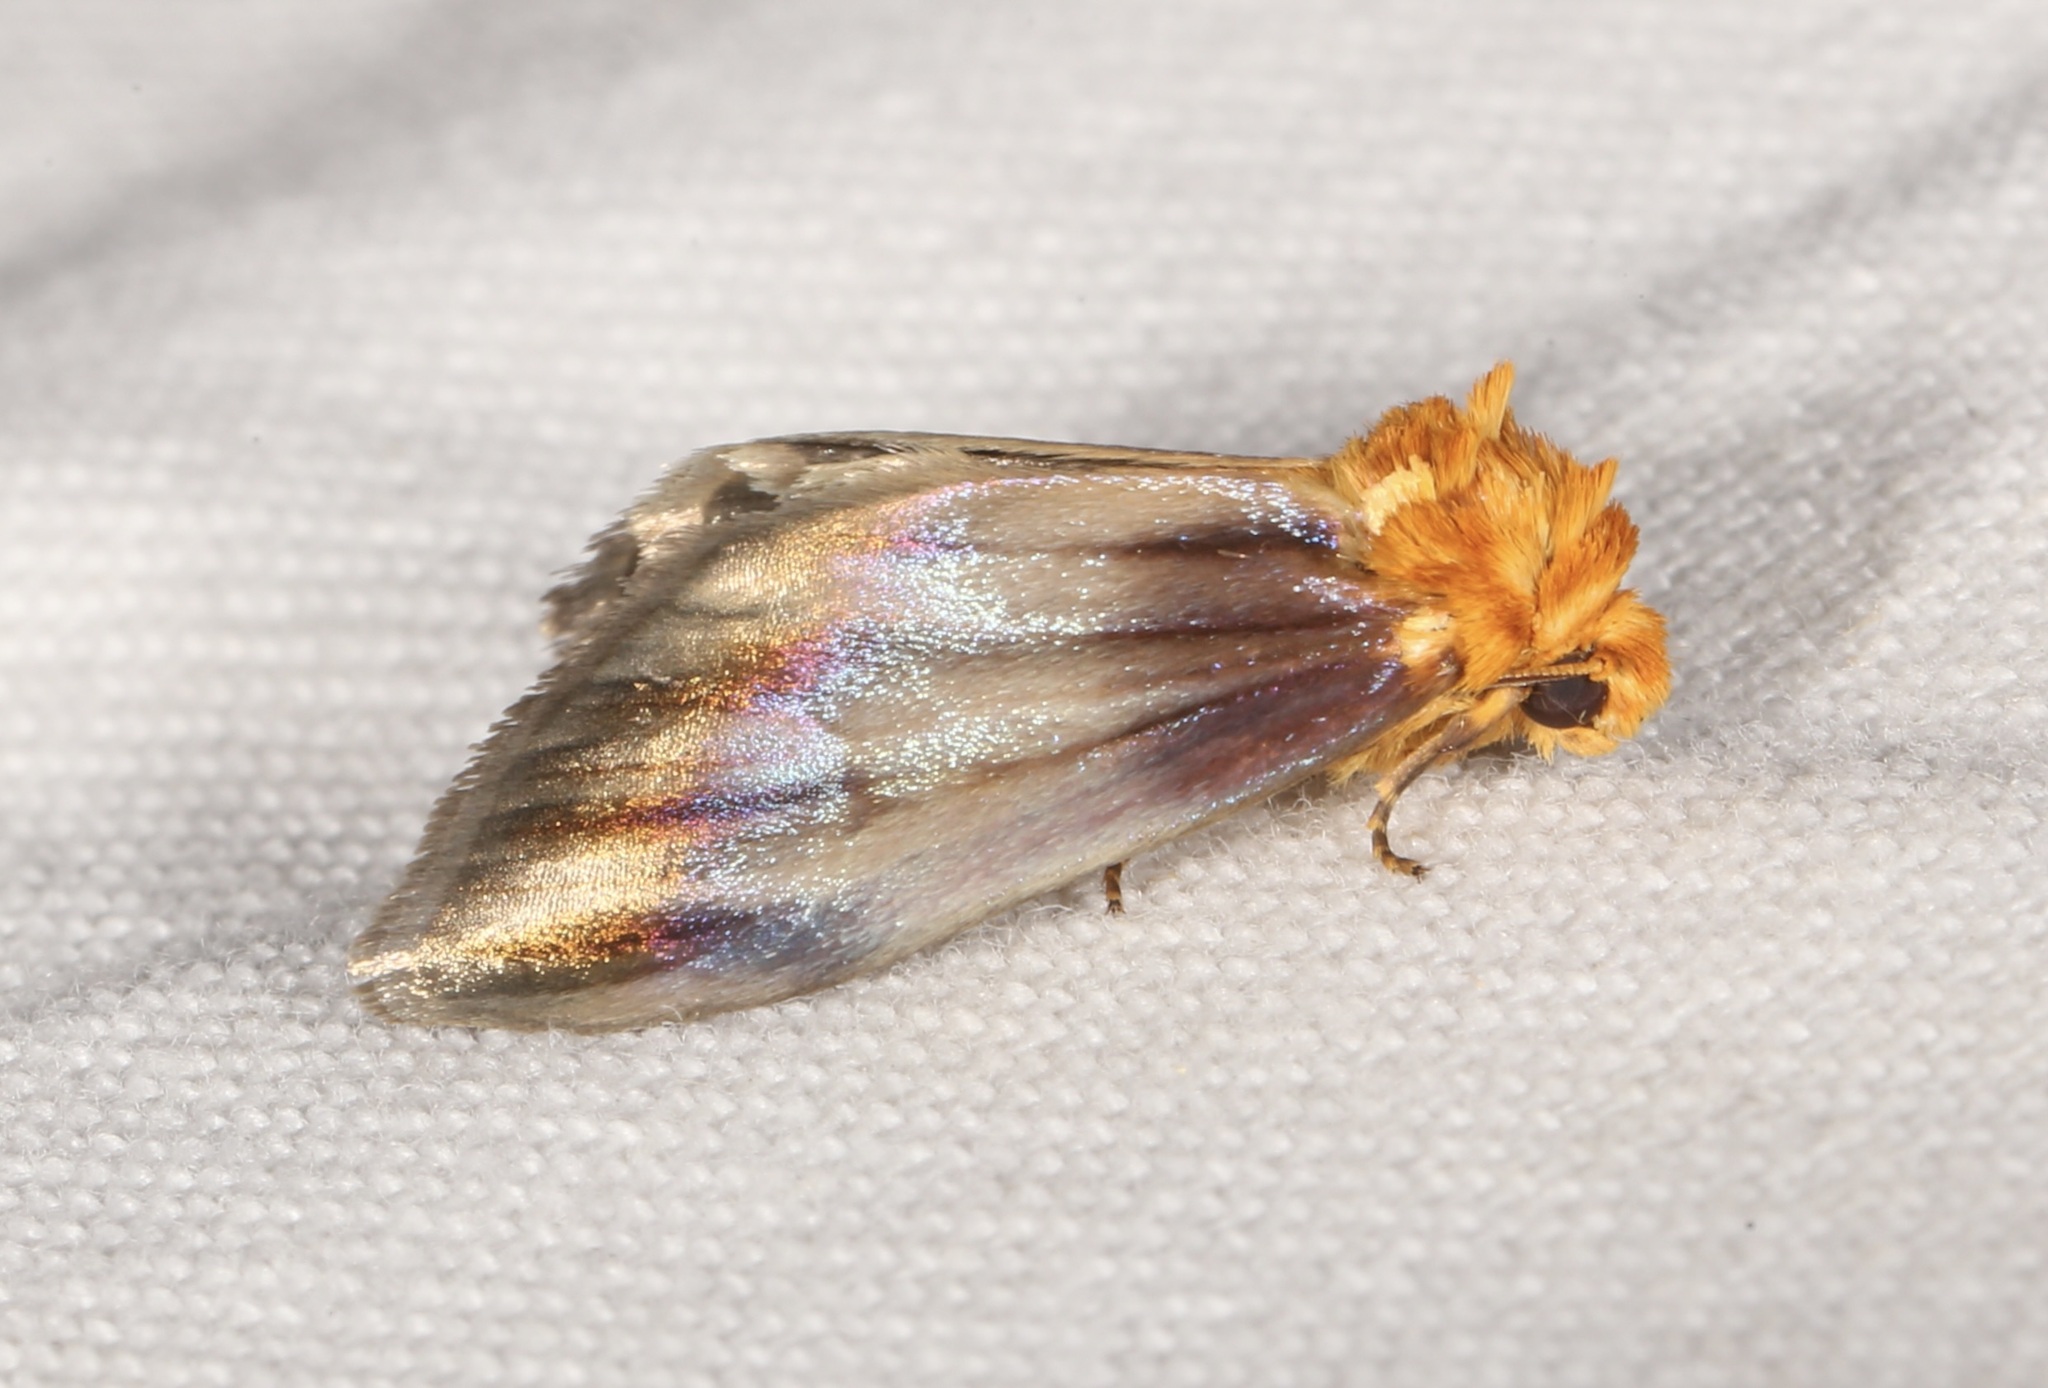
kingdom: Animalia
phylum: Arthropoda
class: Insecta
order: Lepidoptera
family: Noctuidae
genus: Antaplaga
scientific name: Antaplaga plesioglauca
